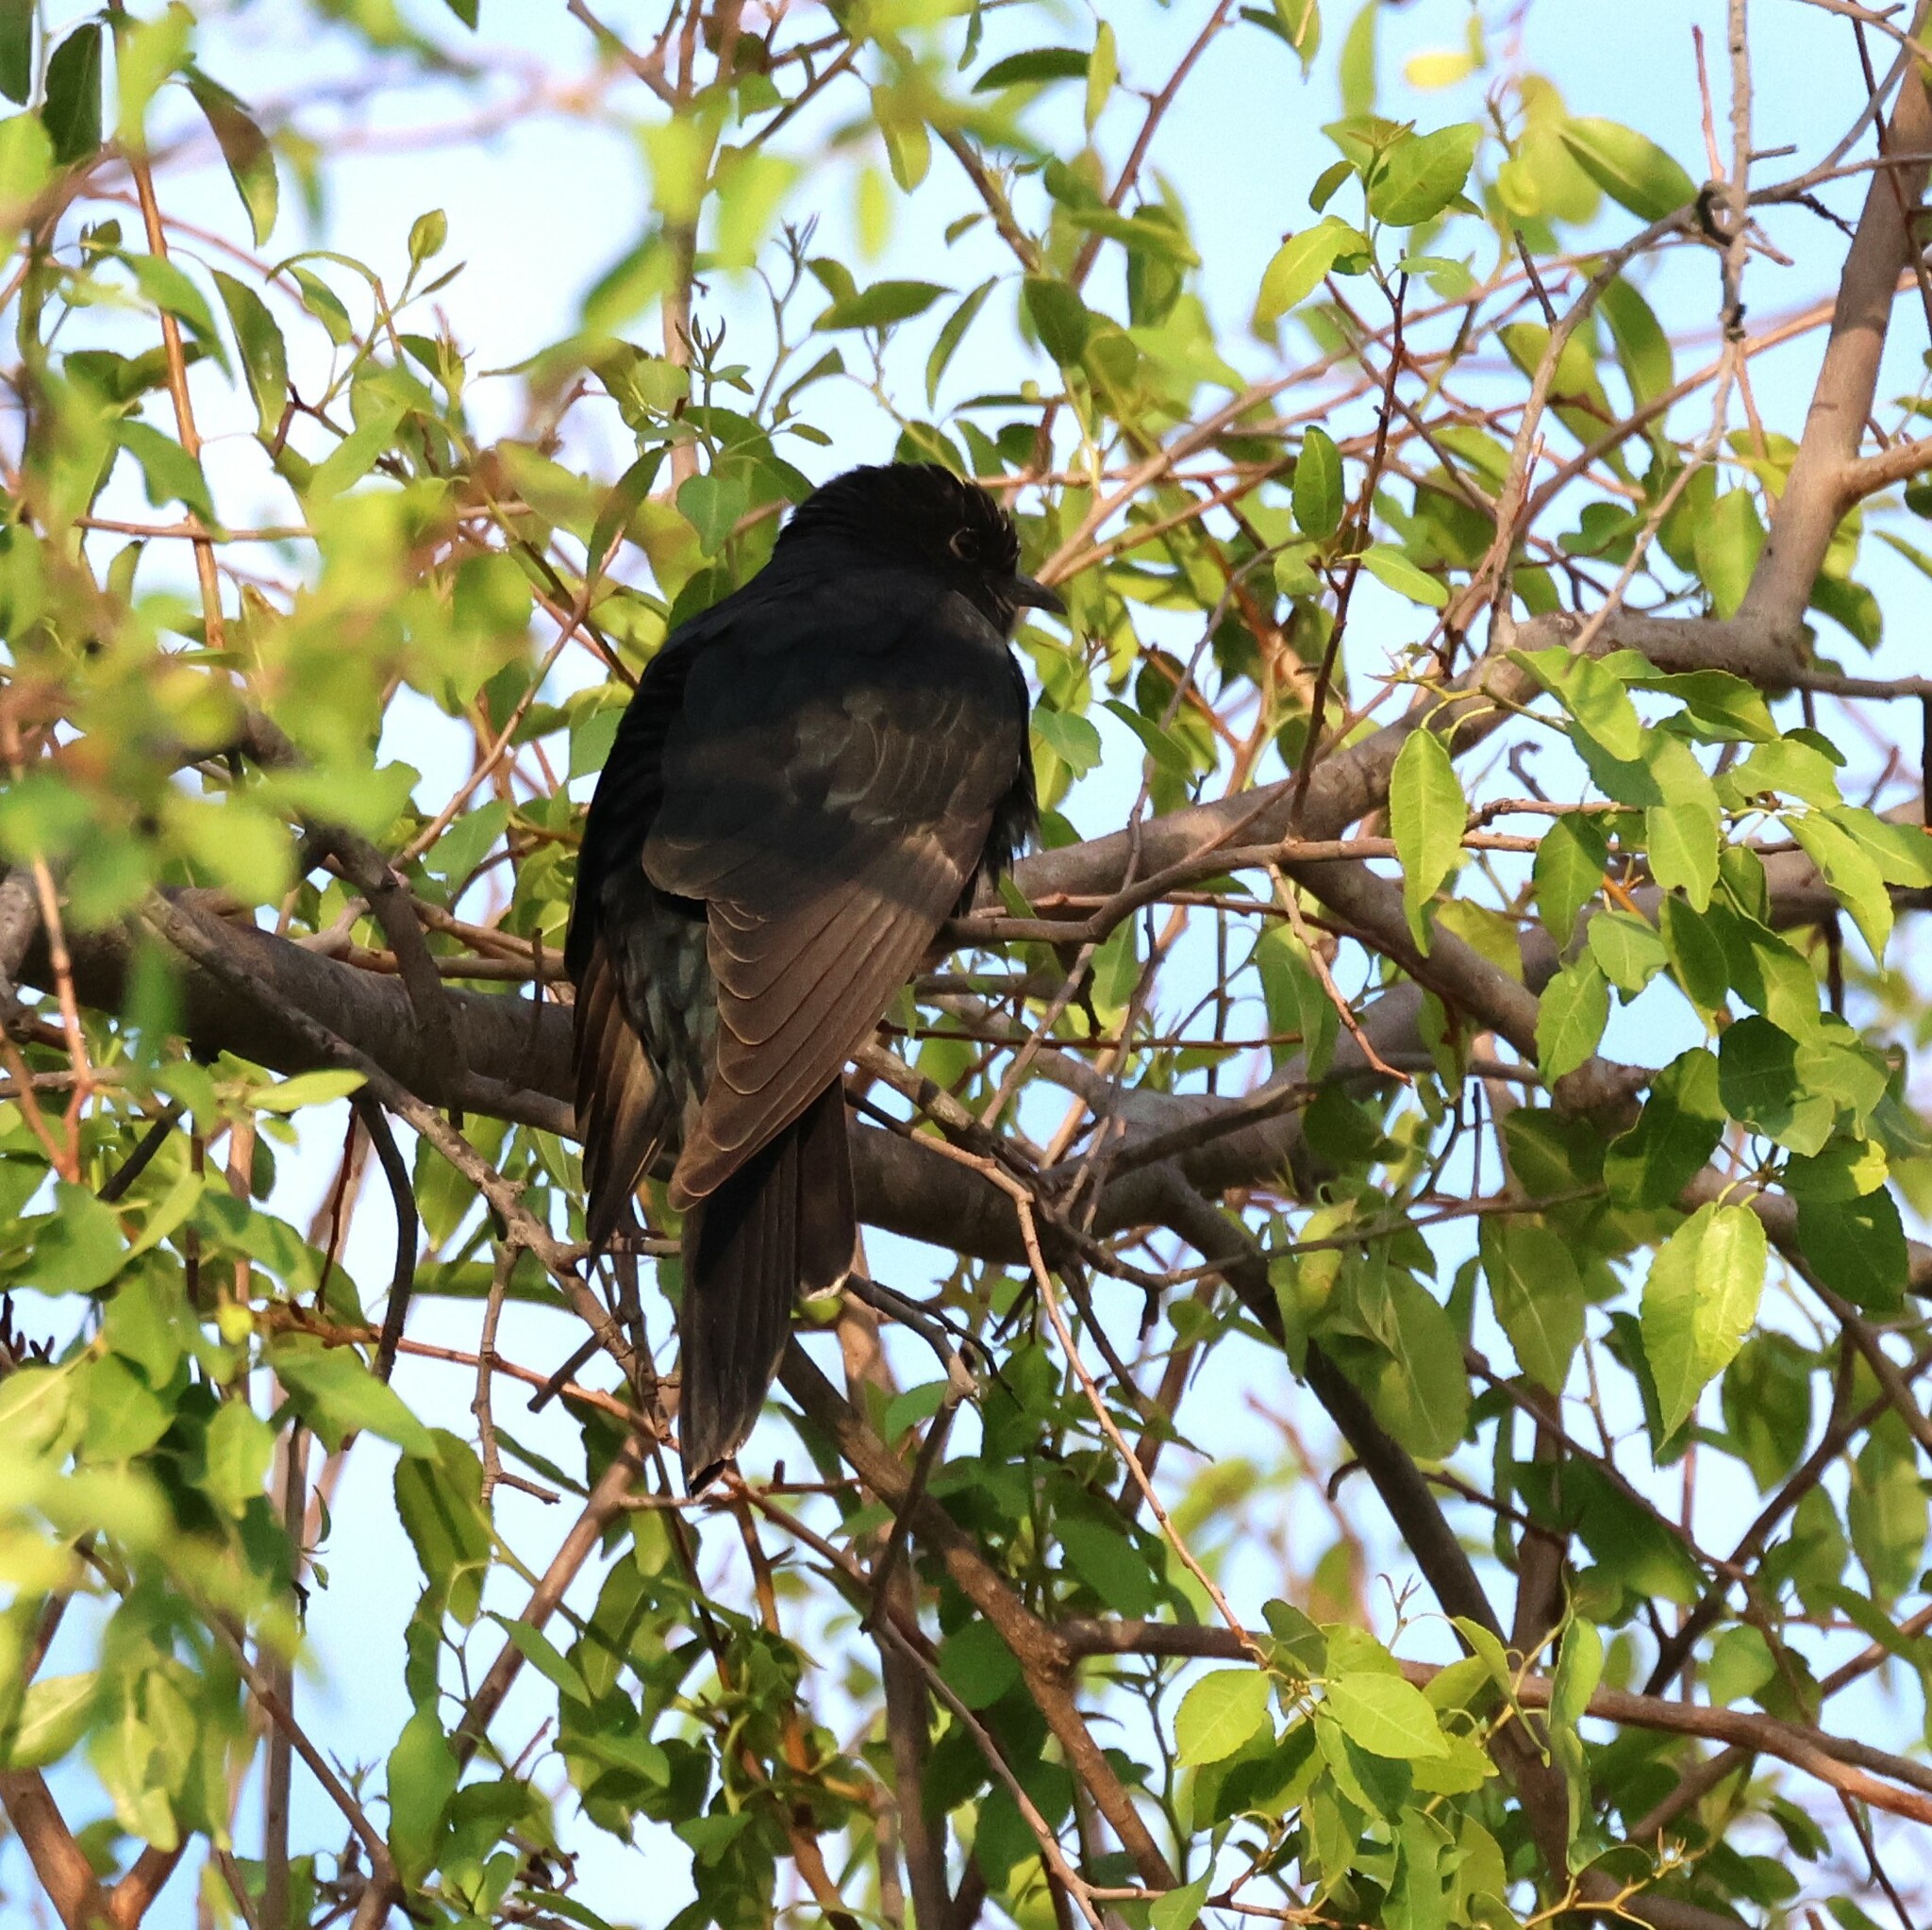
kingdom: Animalia
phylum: Chordata
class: Aves
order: Cuculiformes
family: Cuculidae
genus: Cuculus
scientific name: Cuculus clamosus
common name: Black cuckoo
